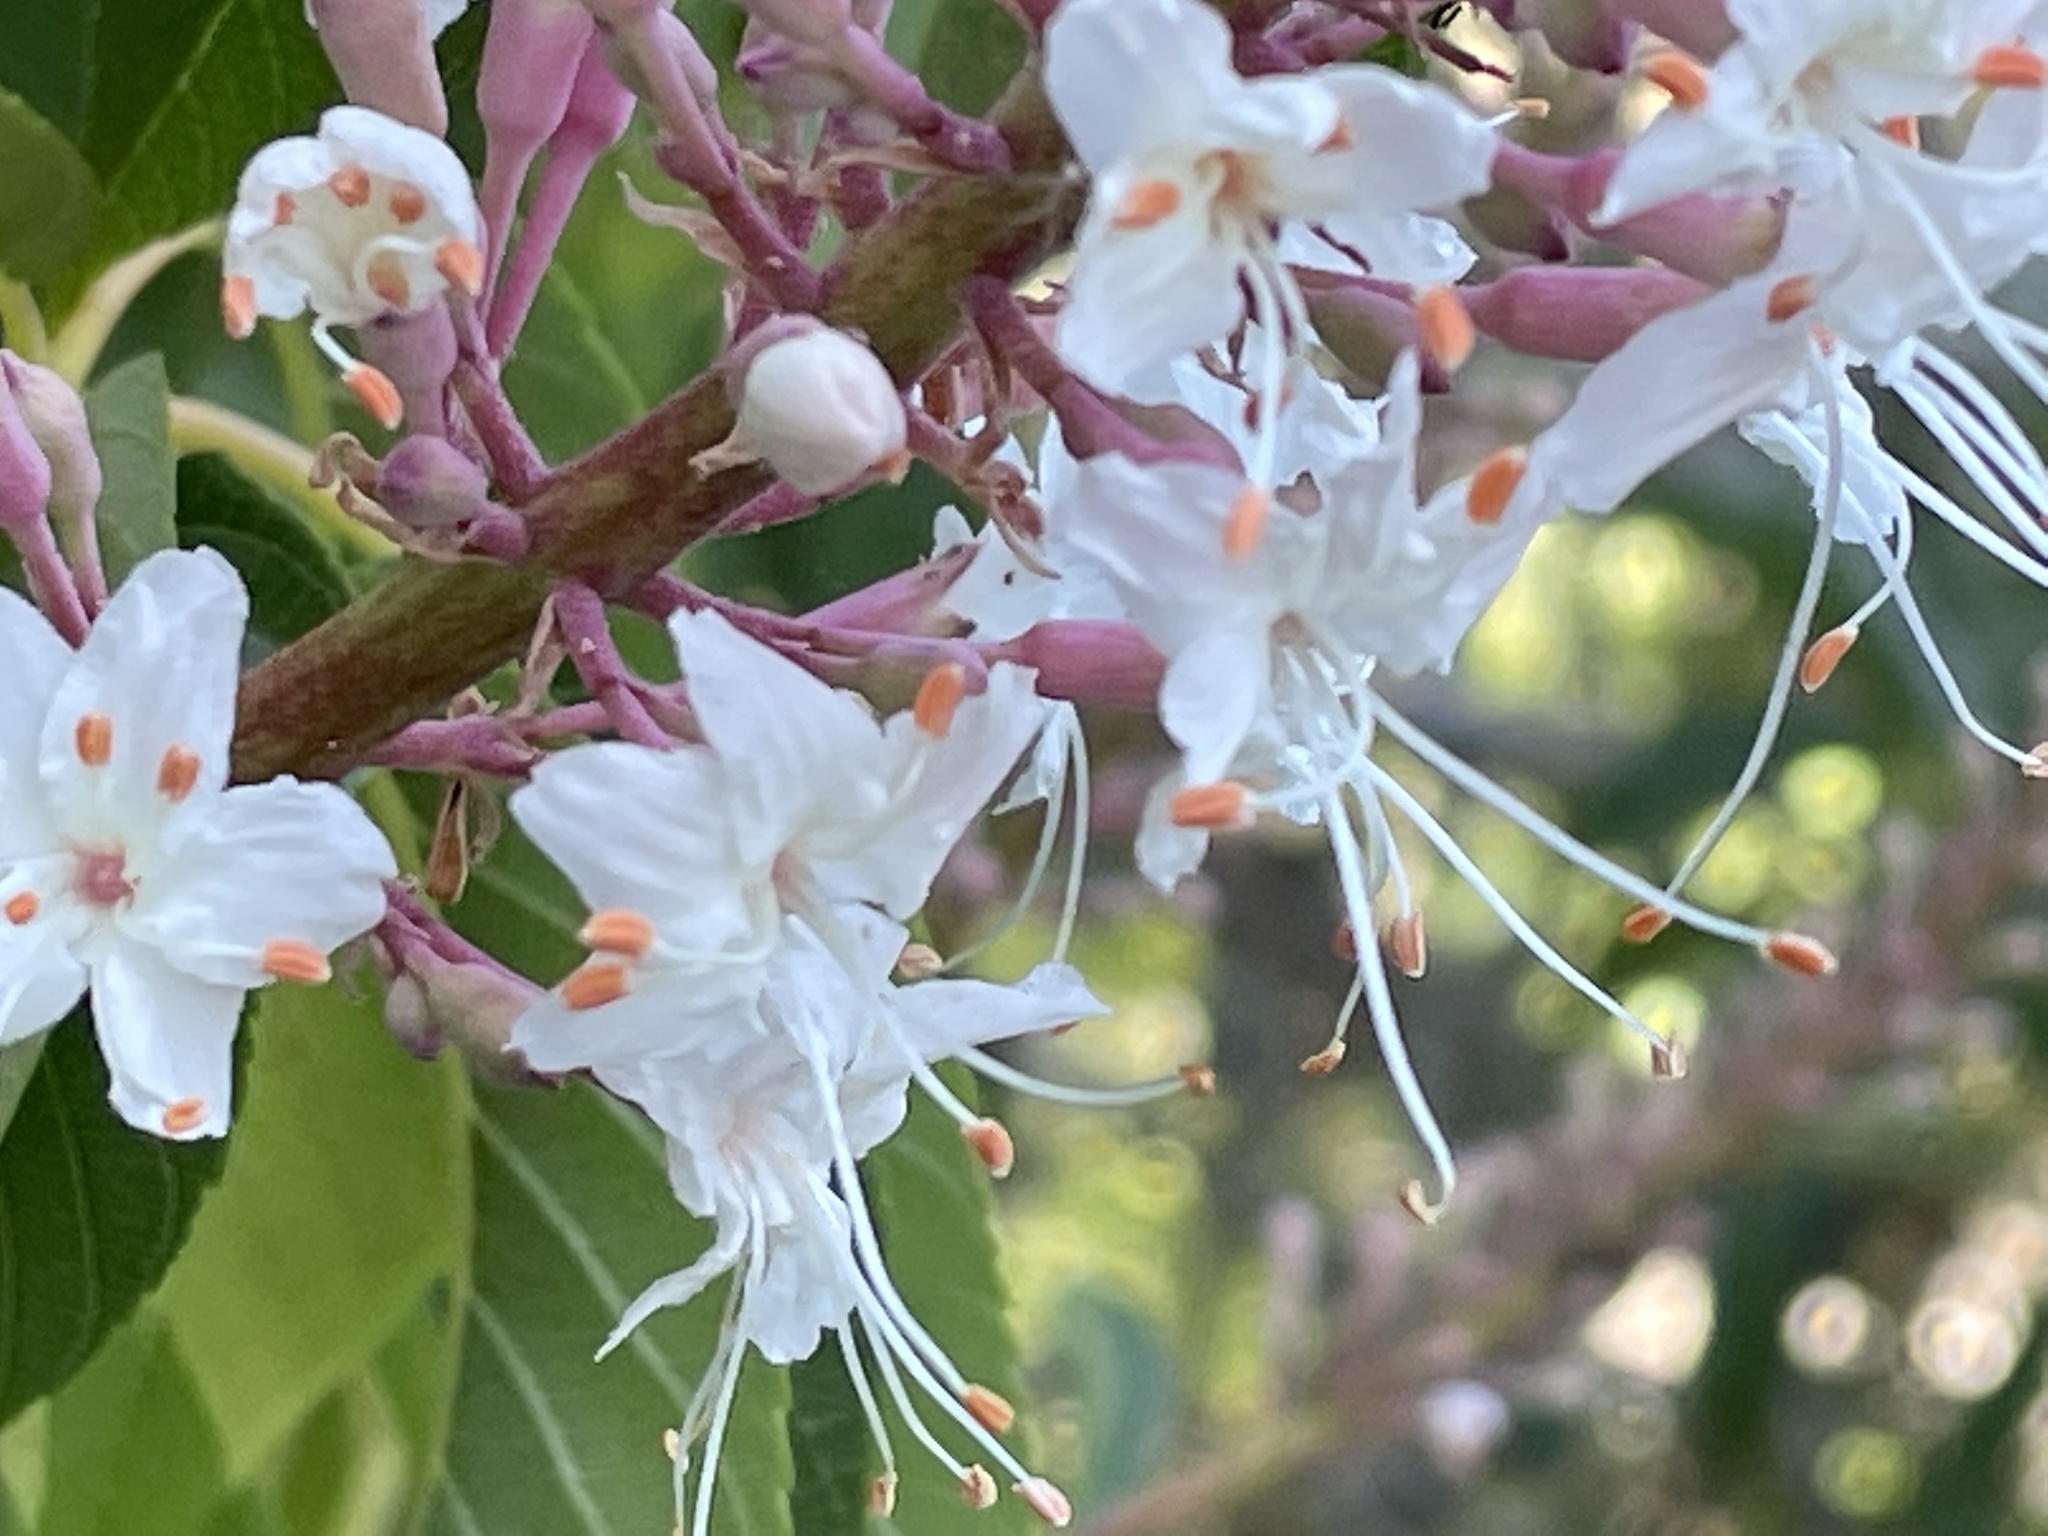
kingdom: Plantae
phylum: Tracheophyta
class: Magnoliopsida
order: Sapindales
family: Sapindaceae
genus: Aesculus
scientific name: Aesculus californica
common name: California buckeye
